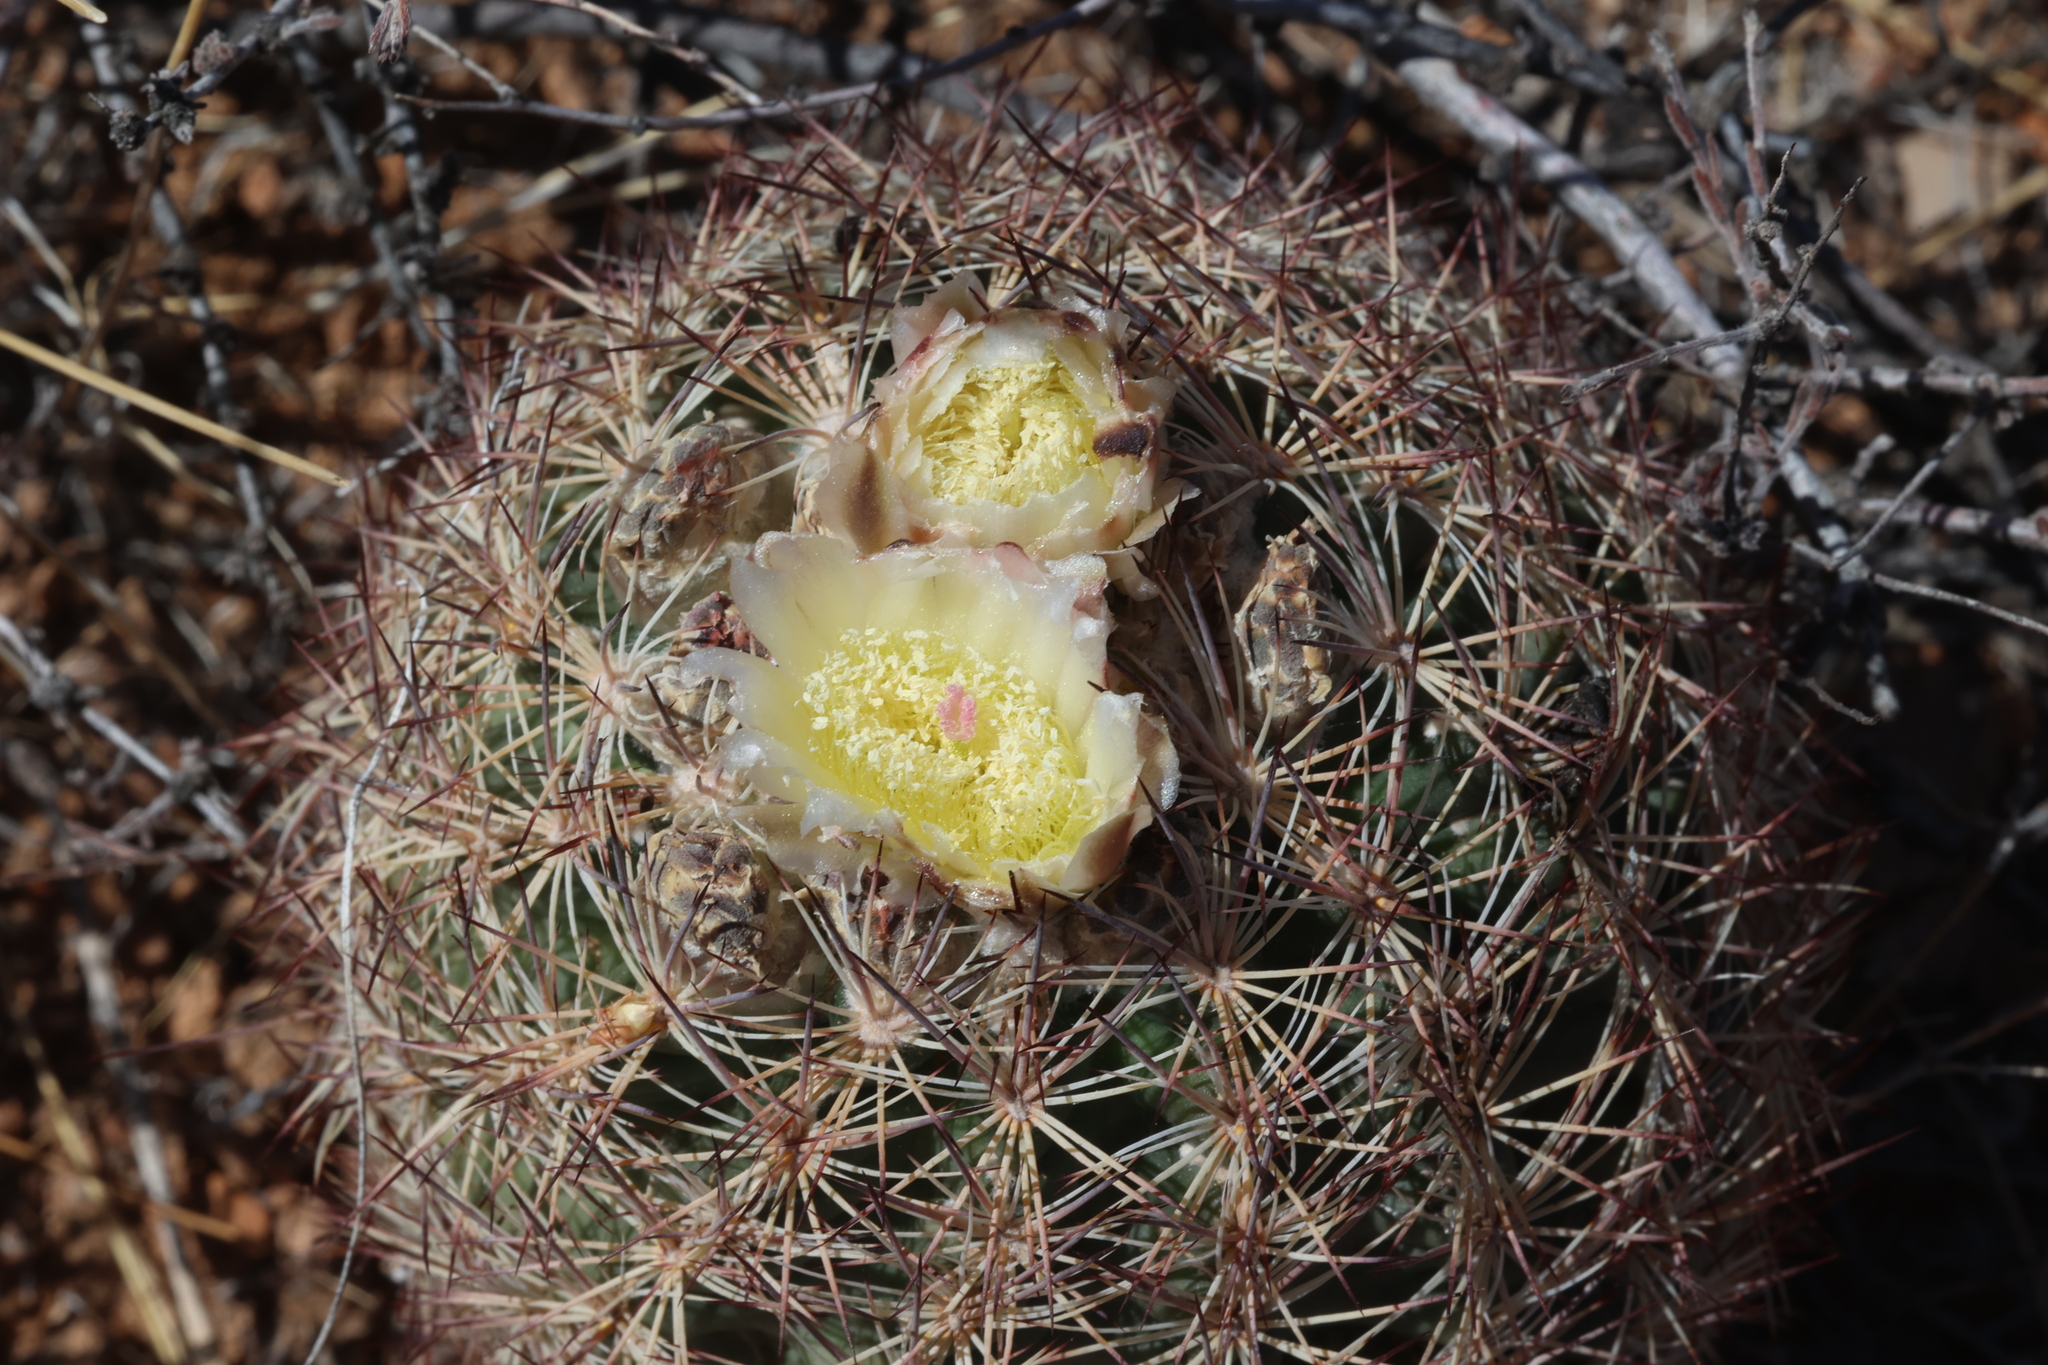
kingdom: Plantae
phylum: Tracheophyta
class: Magnoliopsida
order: Caryophyllales
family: Cactaceae
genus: Sclerocactus
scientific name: Sclerocactus intertextus
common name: White fish-hook cactus
